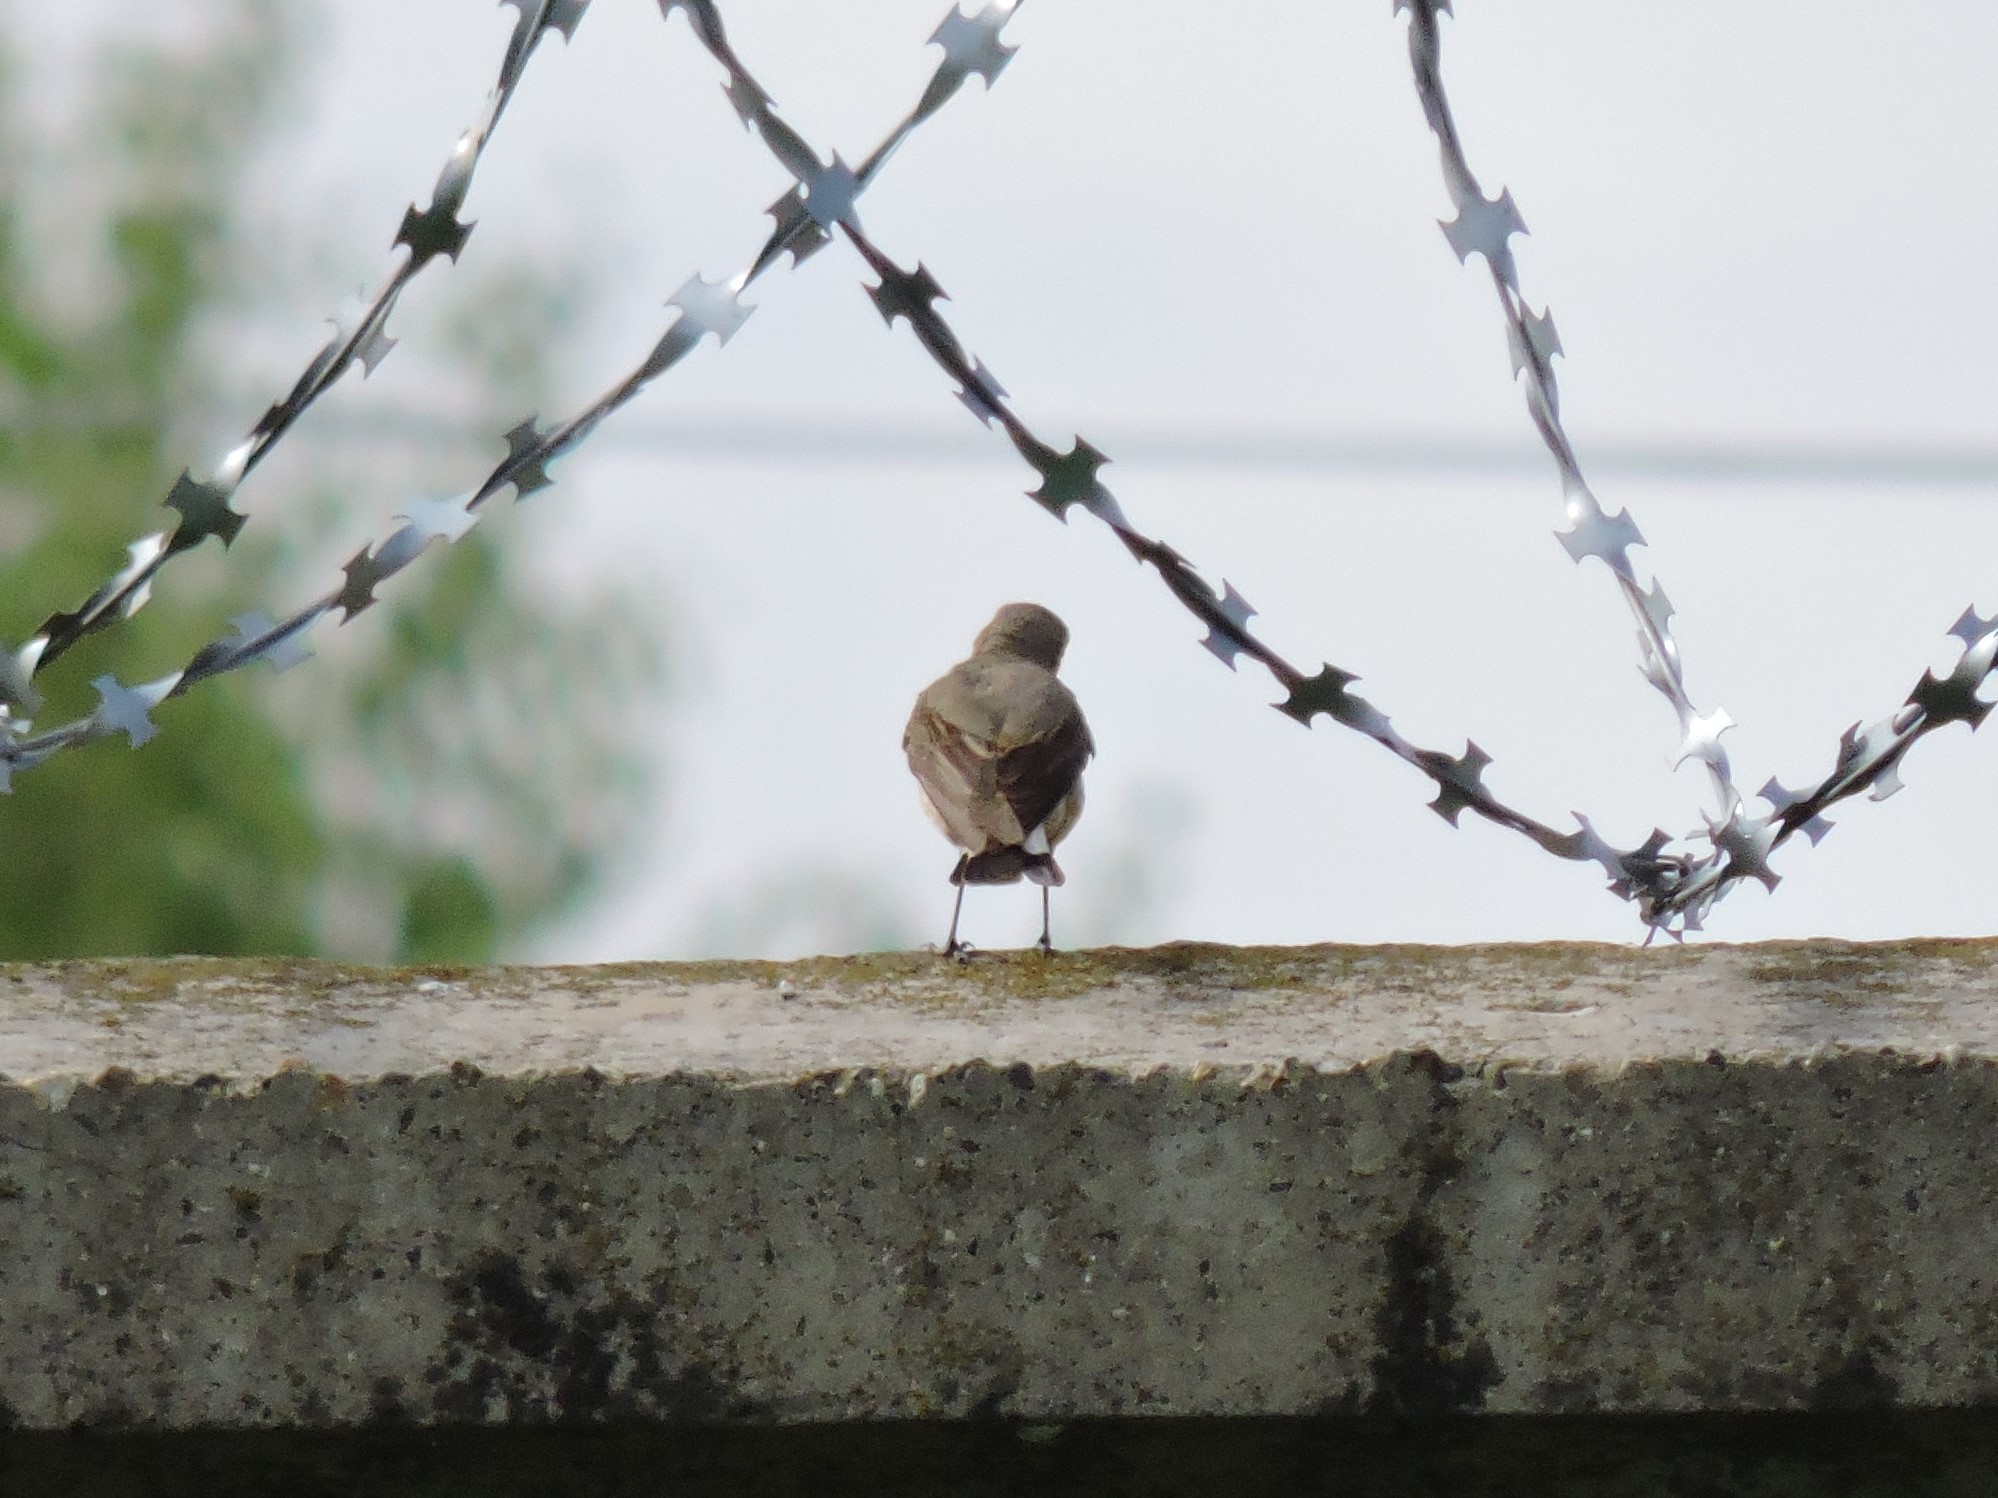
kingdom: Animalia
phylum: Chordata
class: Aves
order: Passeriformes
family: Muscicapidae
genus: Oenanthe
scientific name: Oenanthe oenanthe
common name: Northern wheatear
